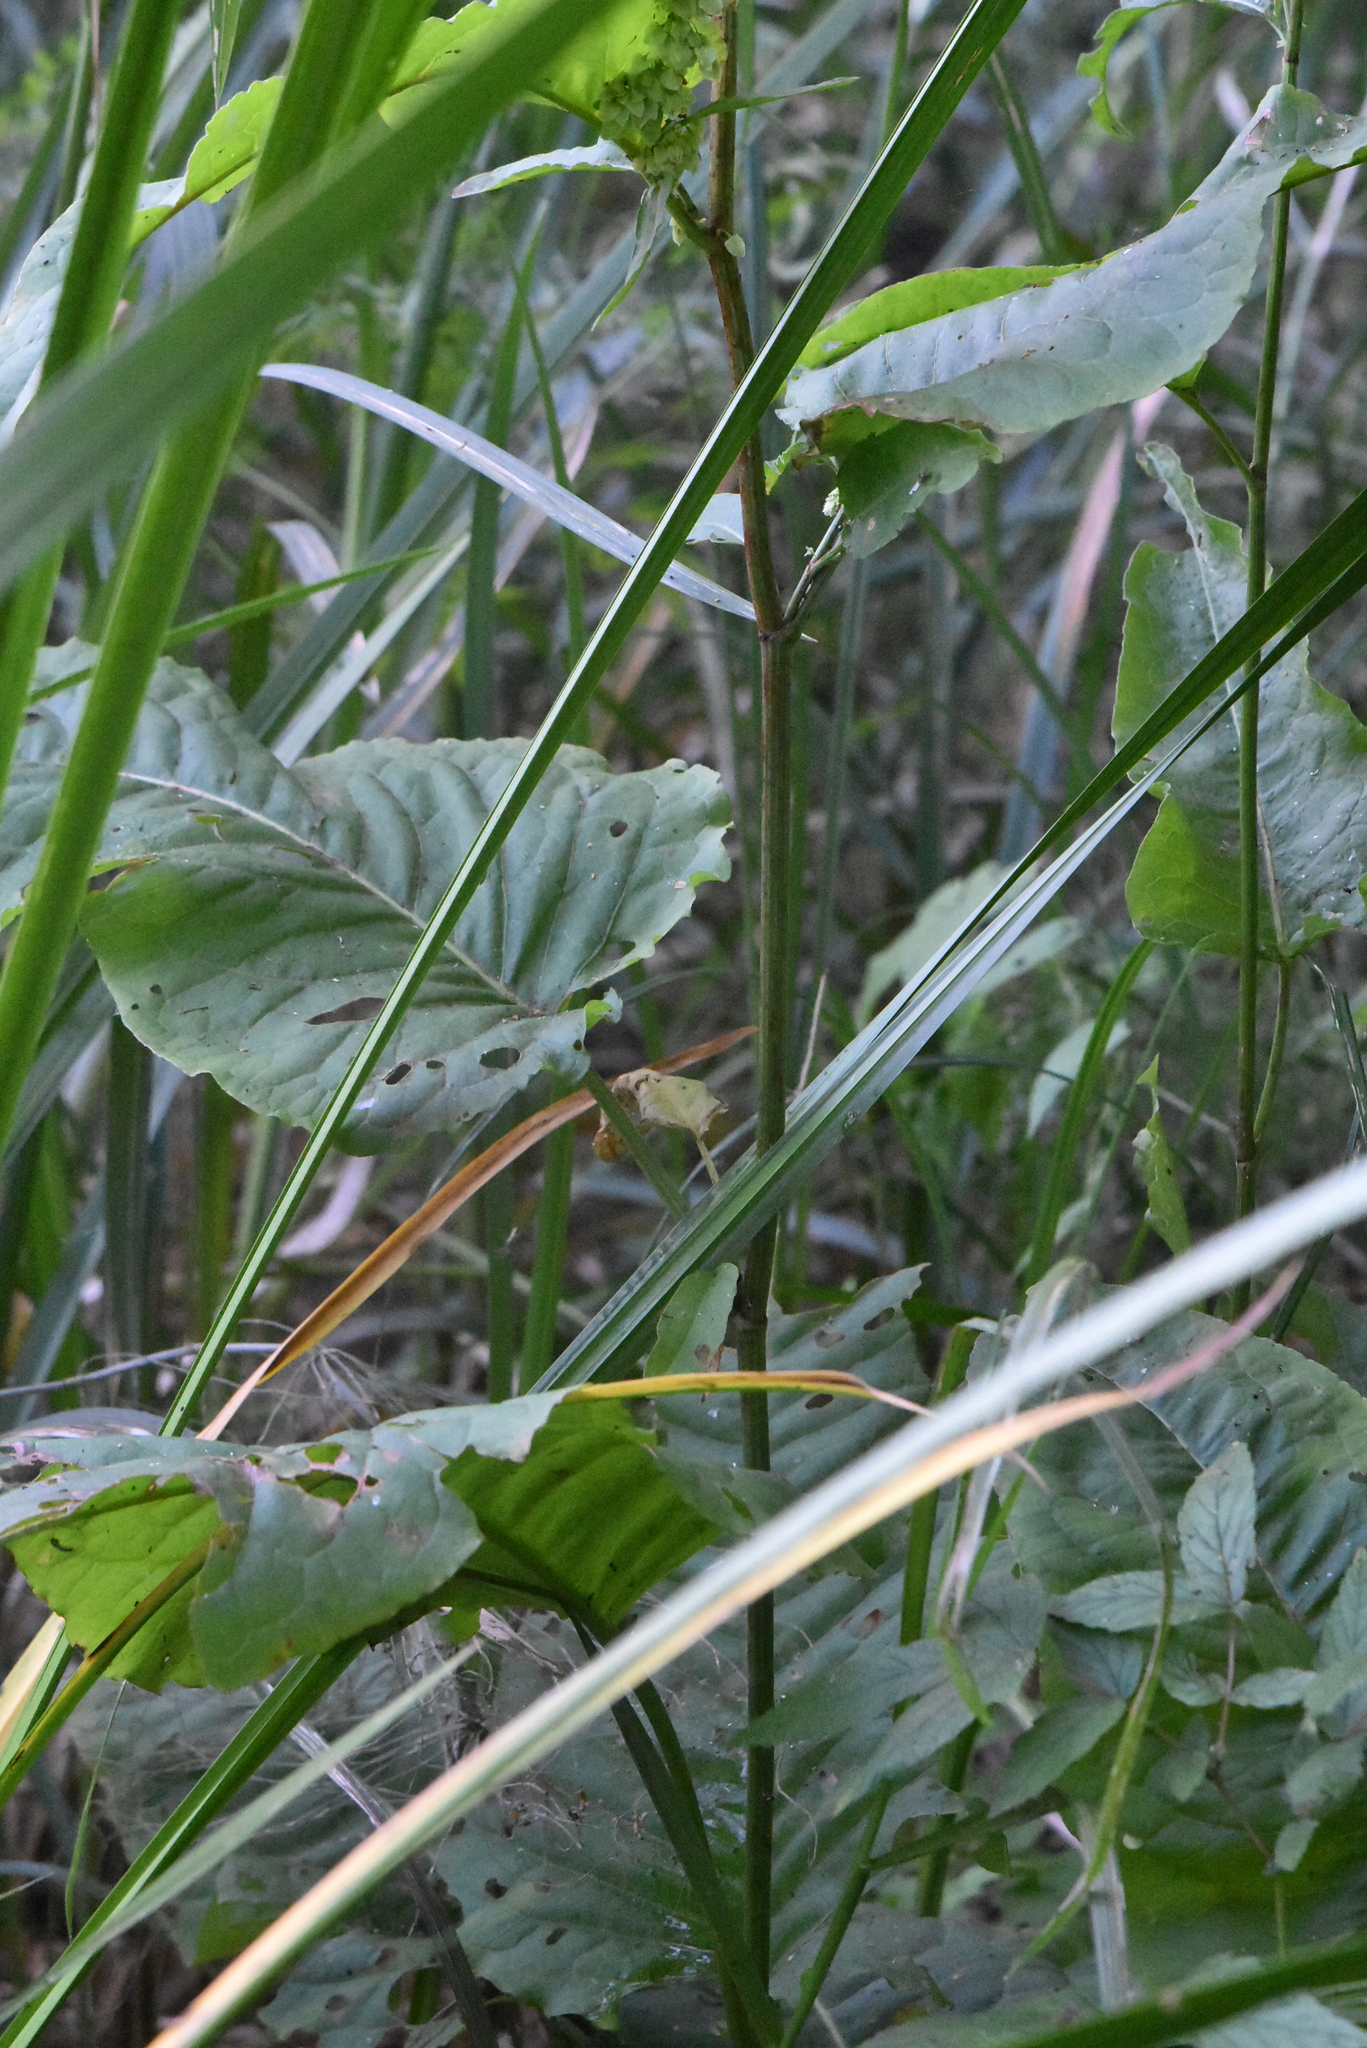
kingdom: Plantae
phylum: Tracheophyta
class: Magnoliopsida
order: Caryophyllales
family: Polygonaceae
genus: Rumex
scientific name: Rumex aquaticus
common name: Scottish dock
